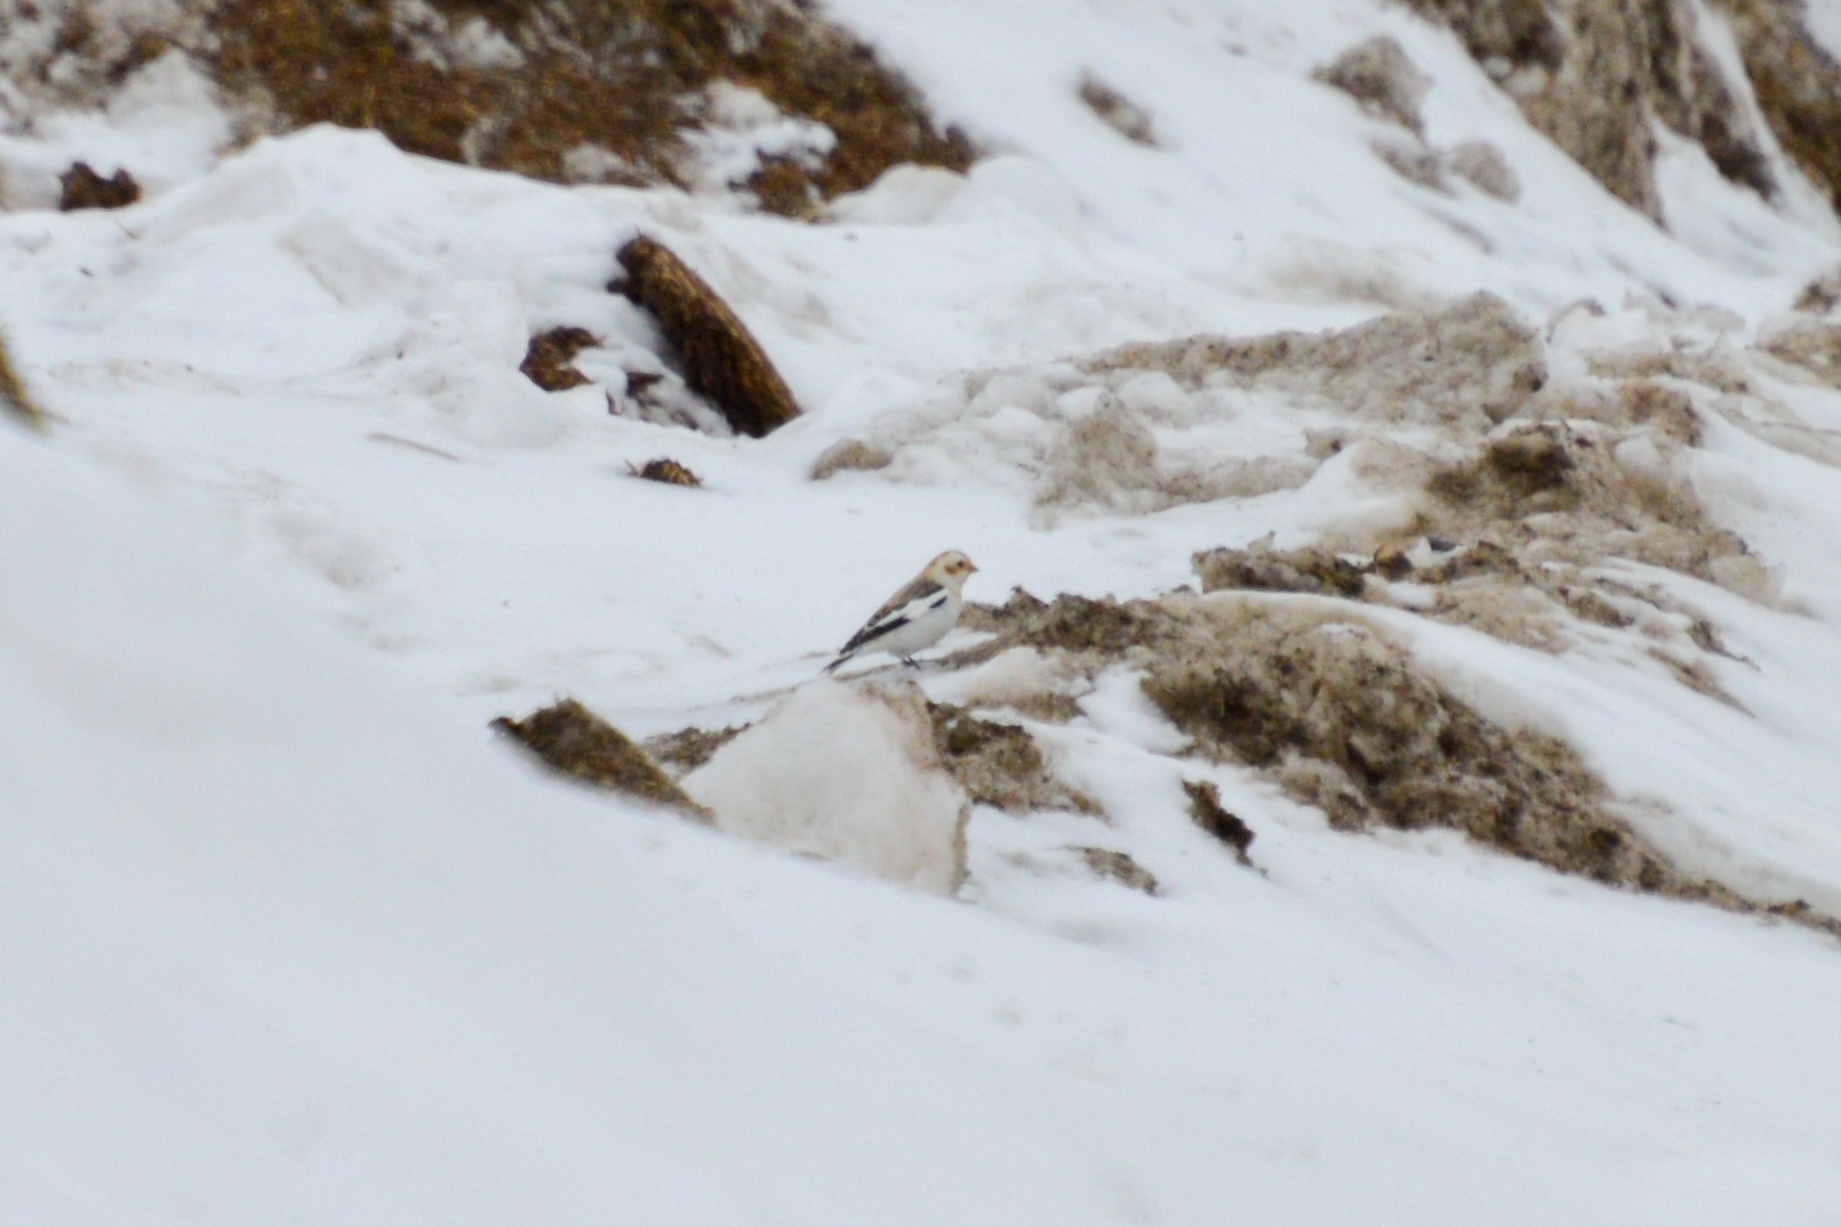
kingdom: Animalia
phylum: Chordata
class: Aves
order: Passeriformes
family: Calcariidae
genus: Plectrophenax
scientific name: Plectrophenax nivalis
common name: Snow bunting
